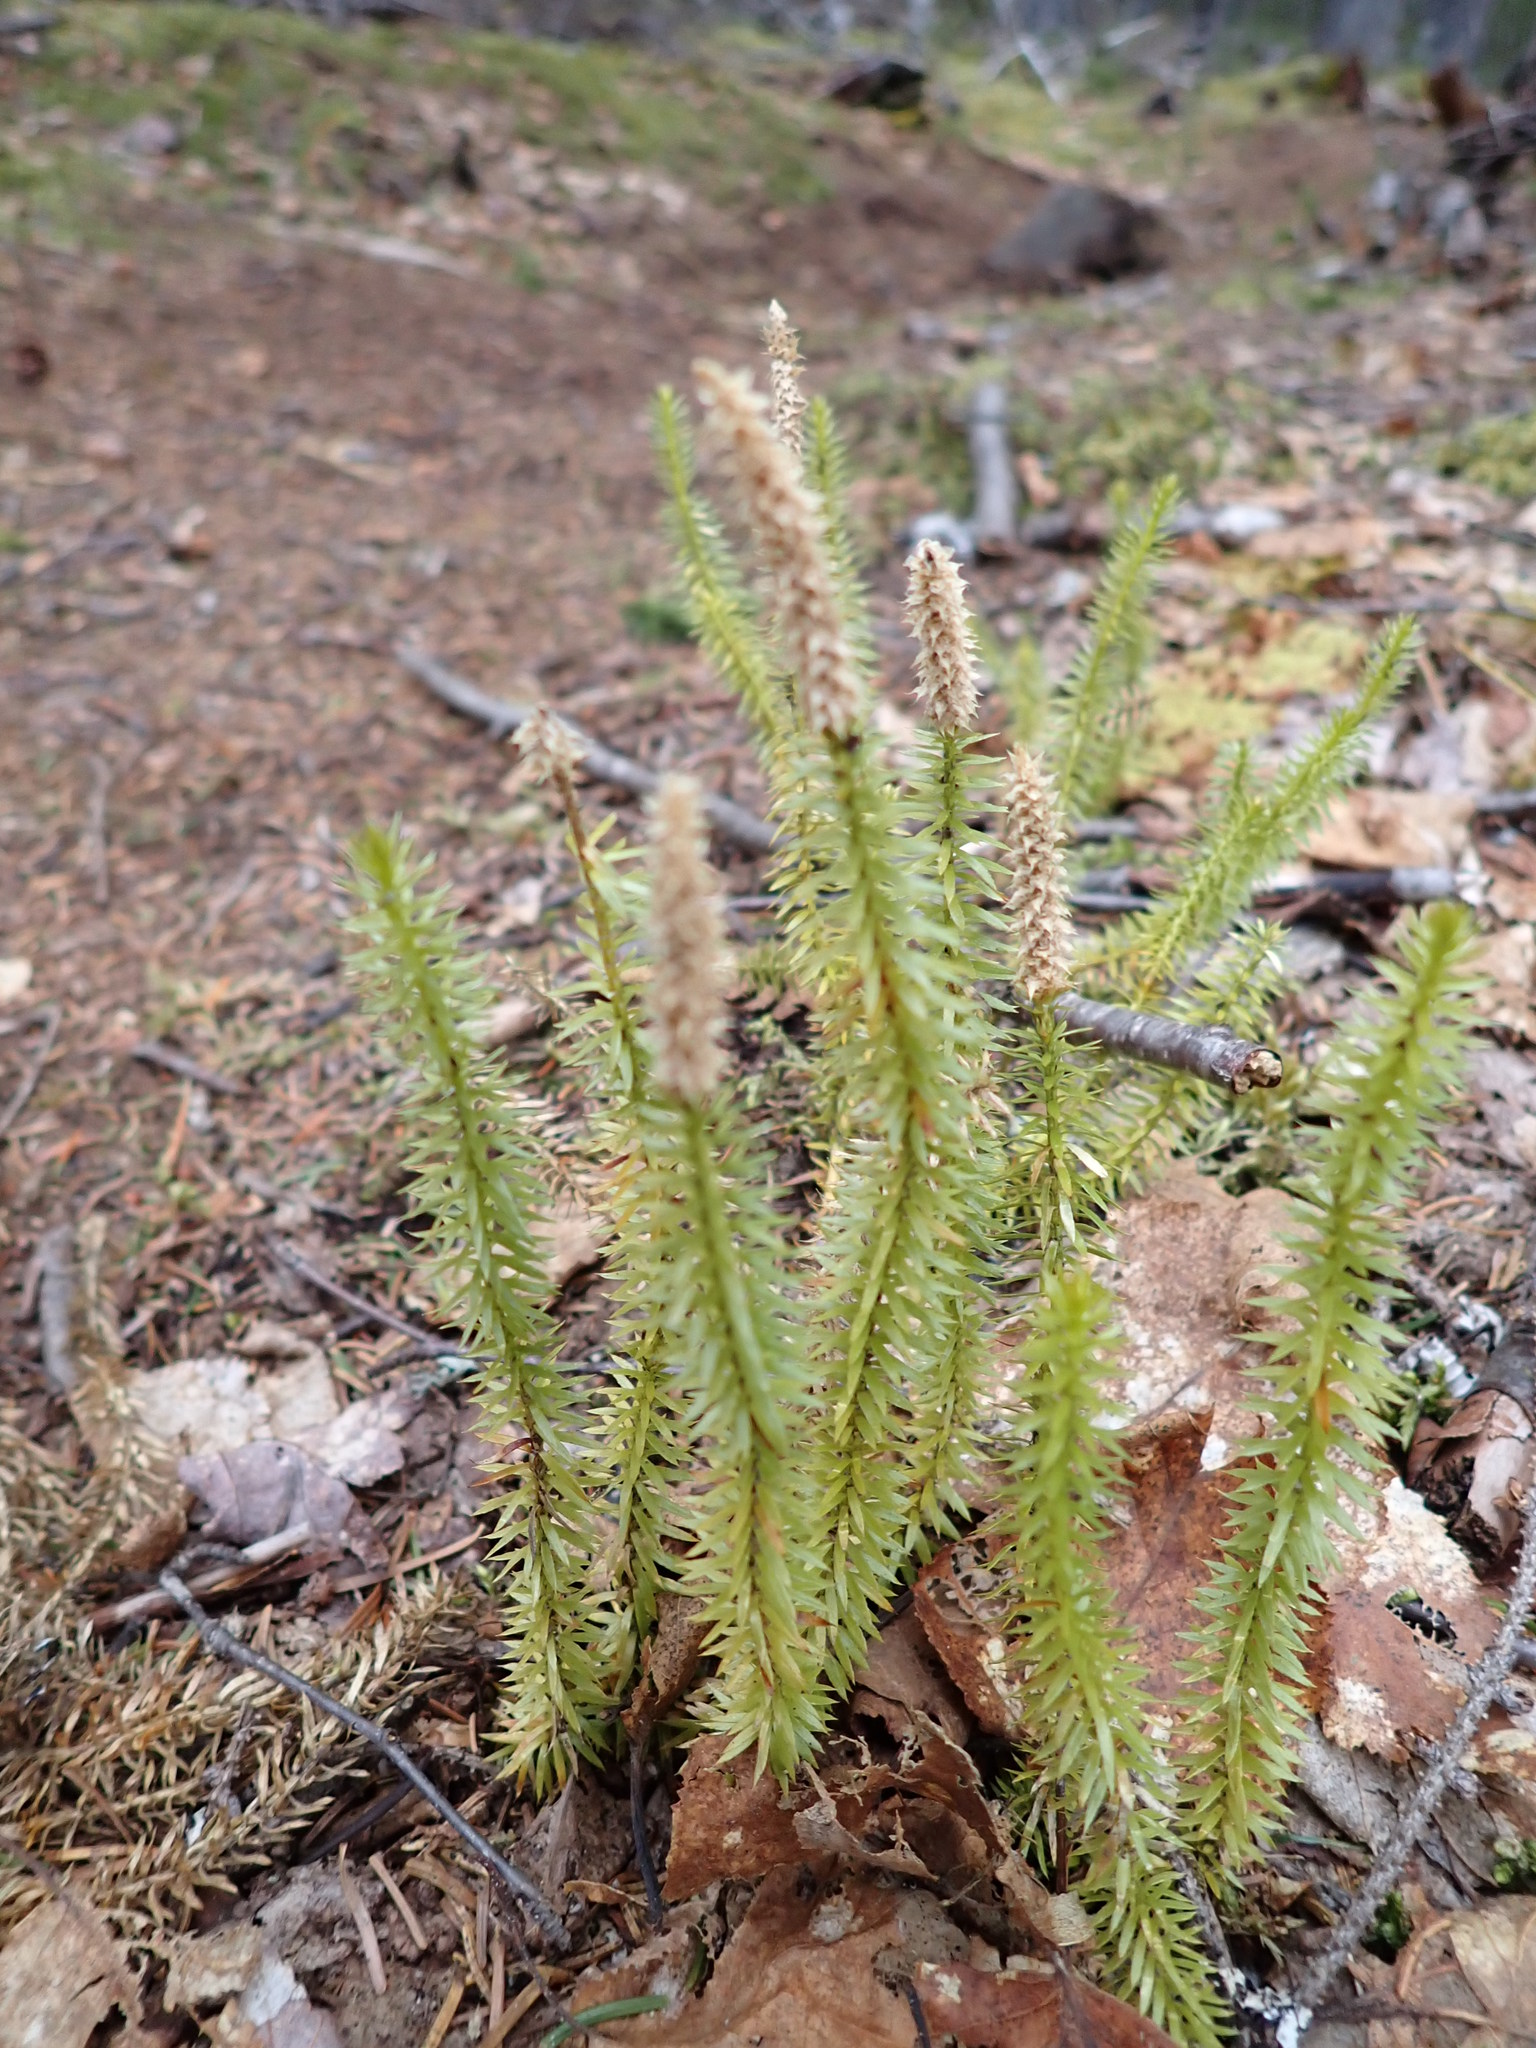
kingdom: Plantae
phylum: Tracheophyta
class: Lycopodiopsida
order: Lycopodiales
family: Lycopodiaceae
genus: Spinulum
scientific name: Spinulum annotinum
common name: Interrupted club-moss
